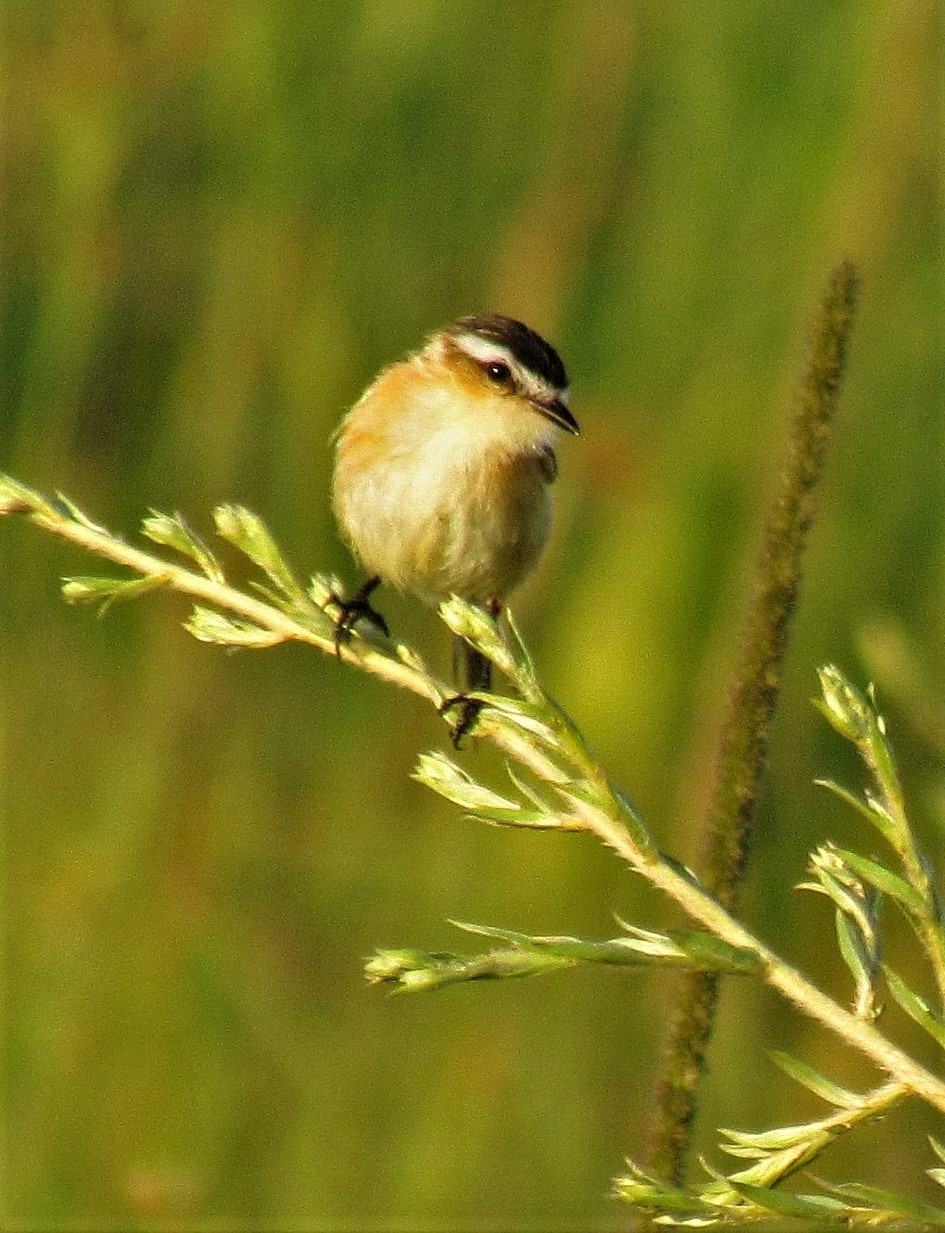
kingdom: Animalia
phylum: Chordata
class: Aves
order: Passeriformes
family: Tyrannidae
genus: Culicivora
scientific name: Culicivora caudacuta
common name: Sharp-tailed grass tyrant
